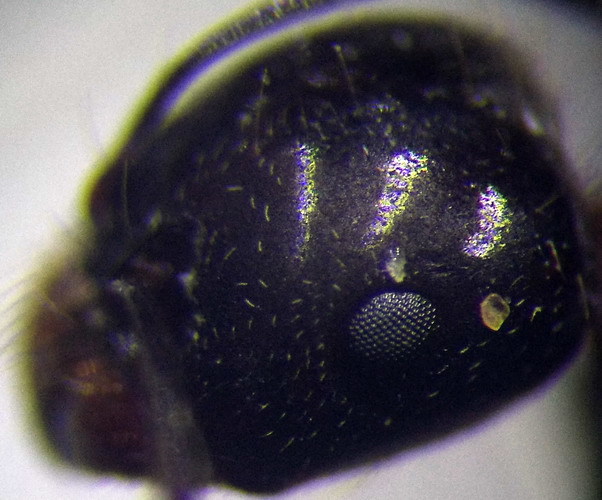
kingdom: Animalia
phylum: Arthropoda
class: Insecta
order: Hymenoptera
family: Formicidae
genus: Messor
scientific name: Messor denticulatus
